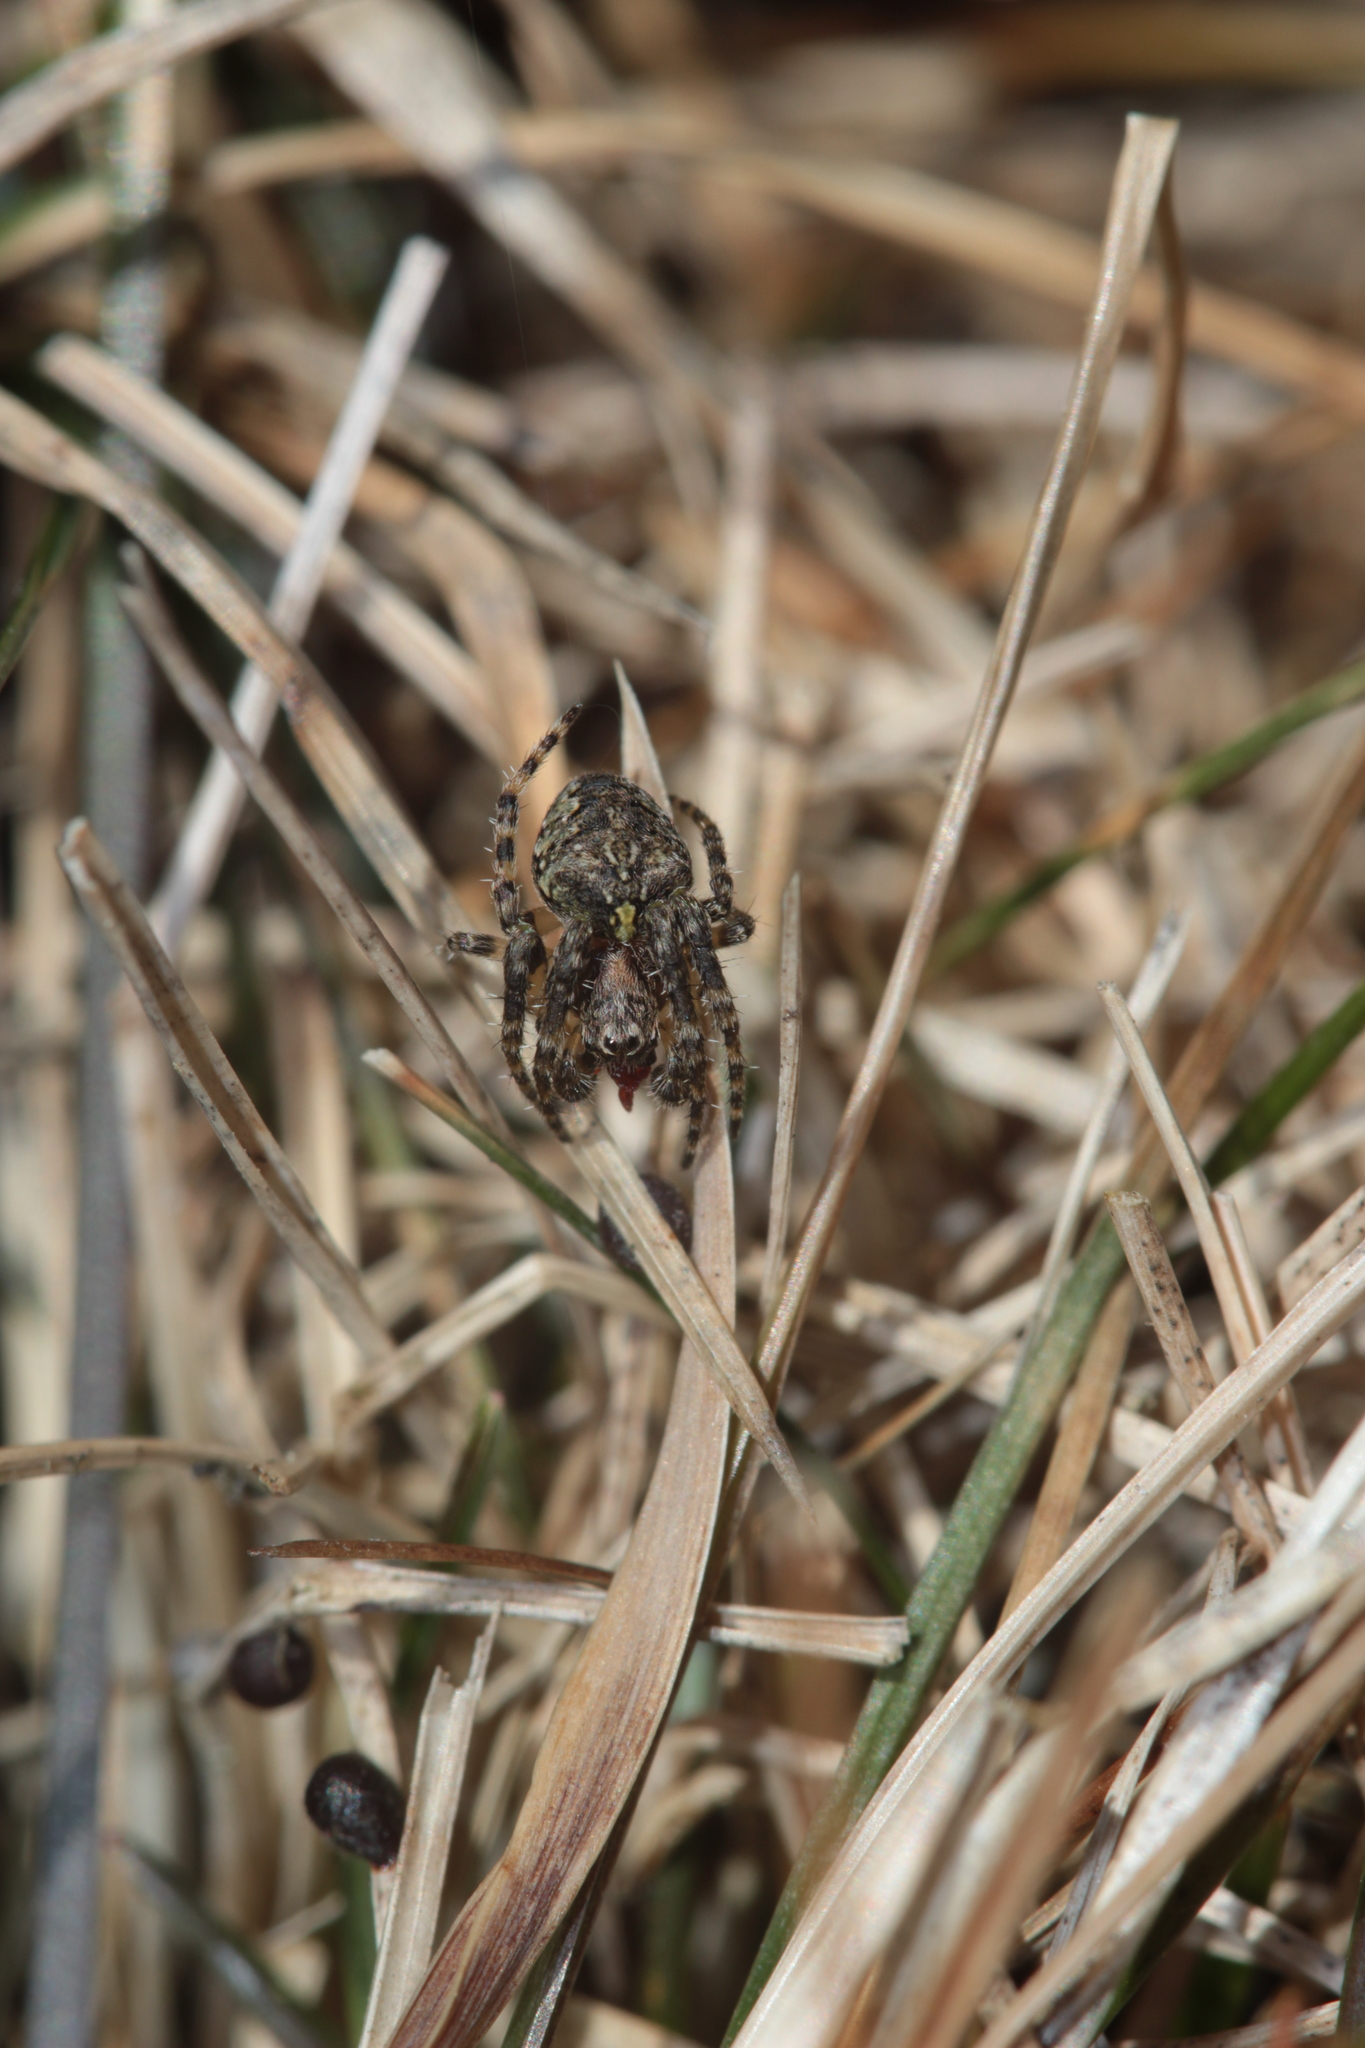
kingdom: Animalia
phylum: Arthropoda
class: Arachnida
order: Araneae
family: Araneidae
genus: Gibbaranea
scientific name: Gibbaranea gibbosa
